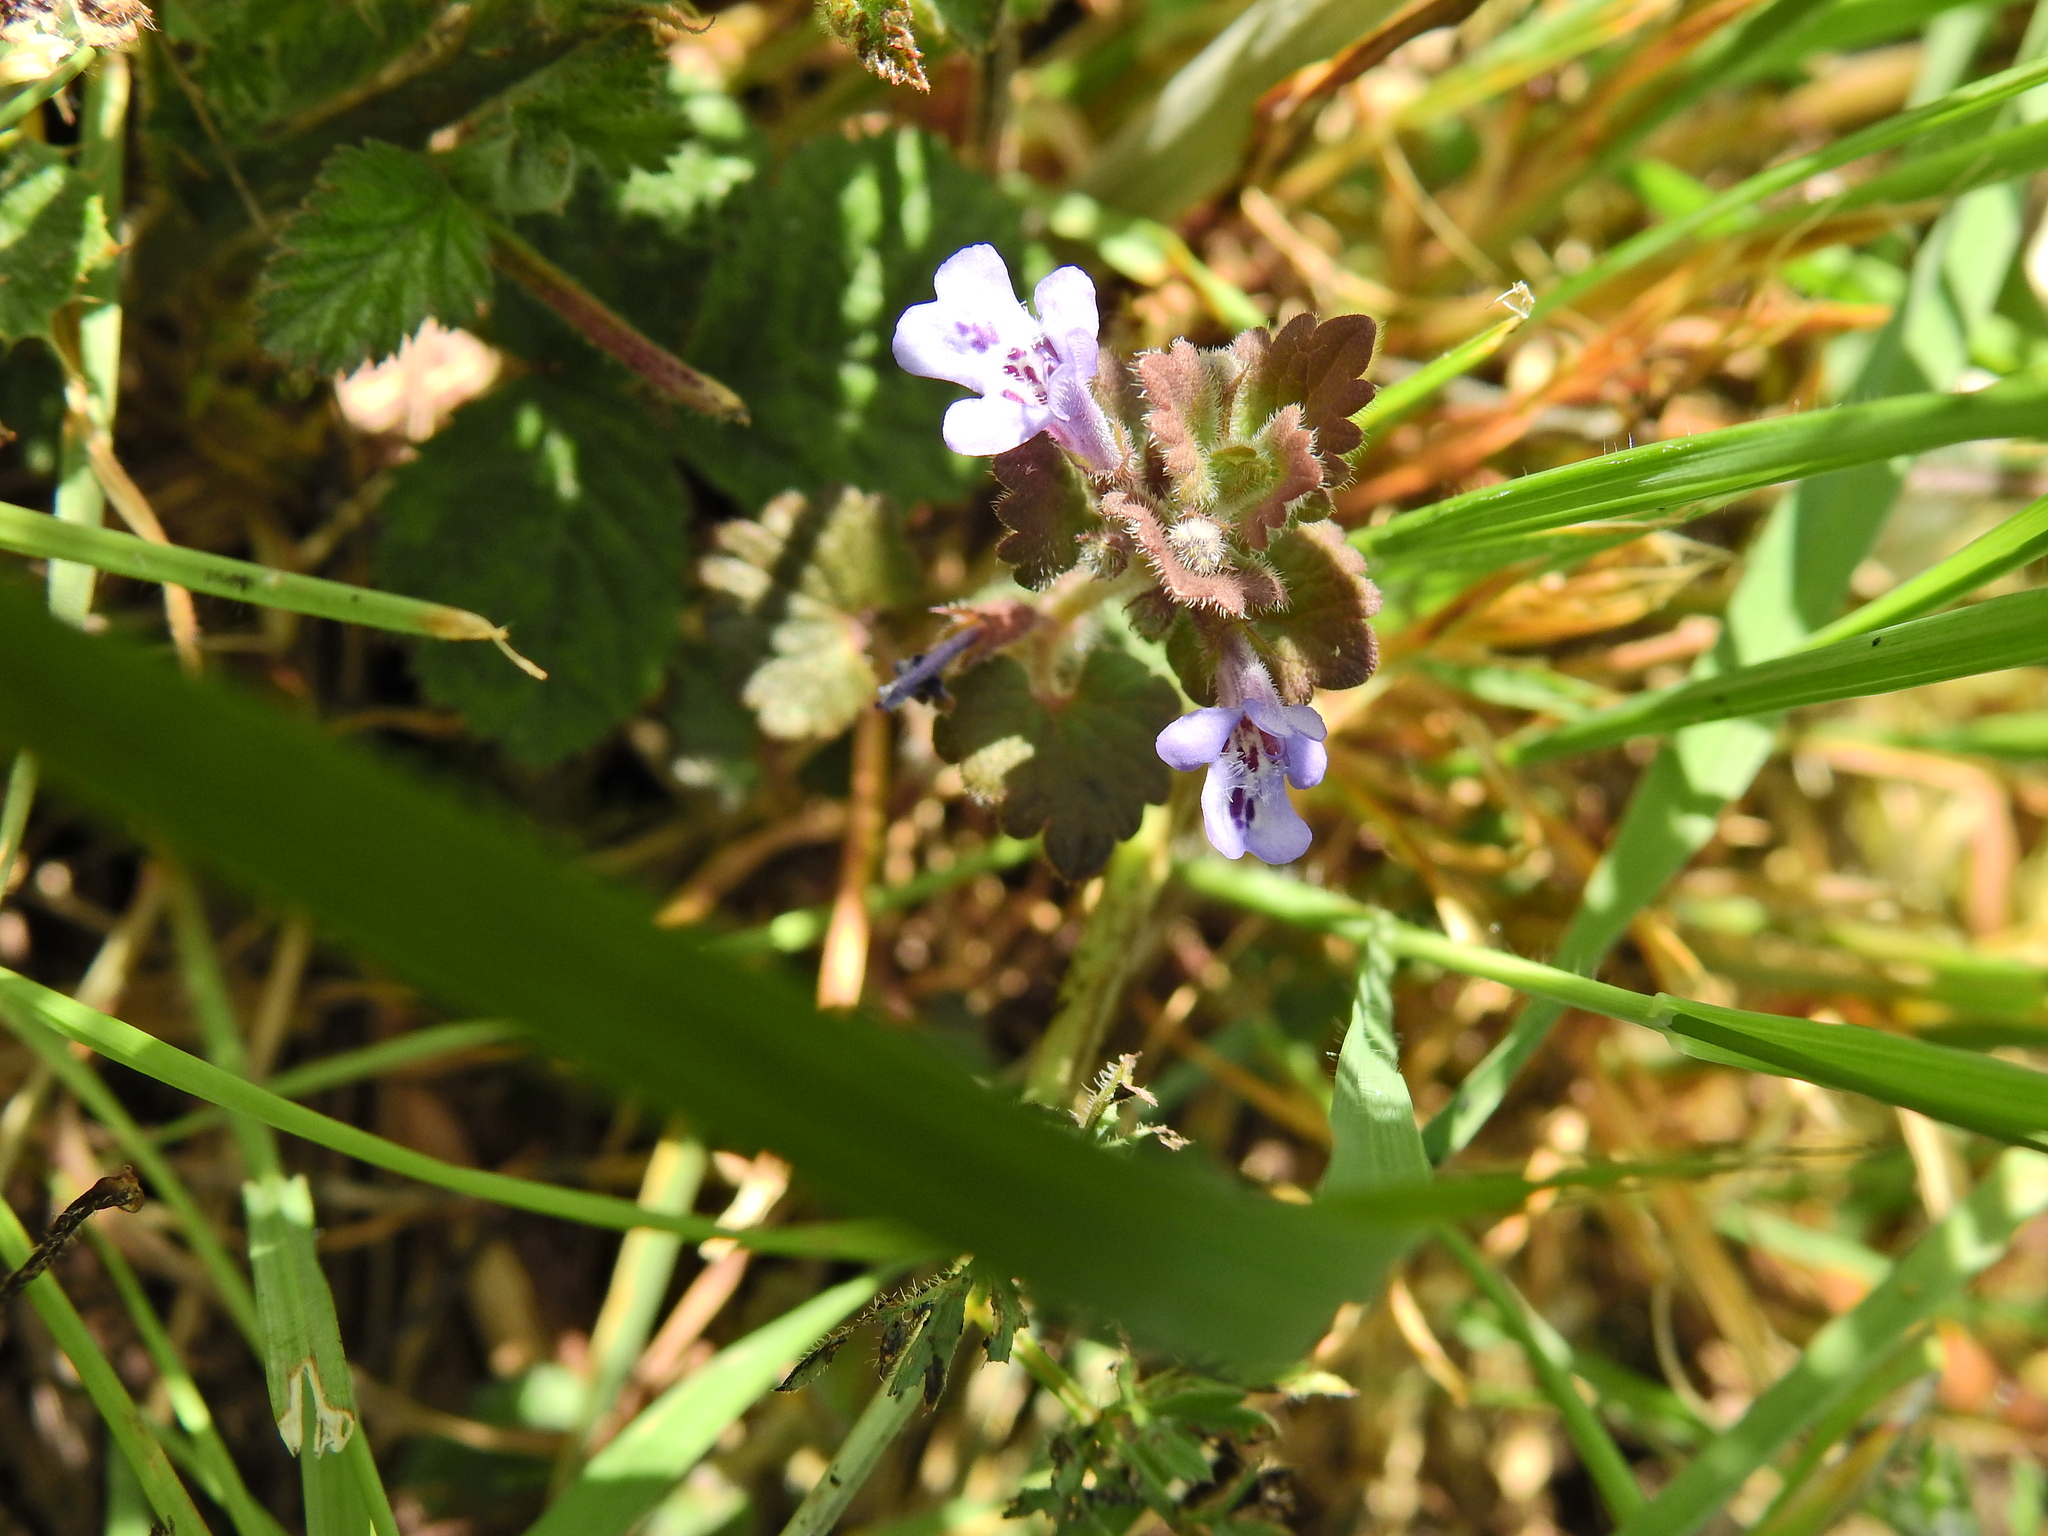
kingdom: Plantae
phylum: Tracheophyta
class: Magnoliopsida
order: Lamiales
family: Lamiaceae
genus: Glechoma
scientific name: Glechoma hederacea
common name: Ground ivy
